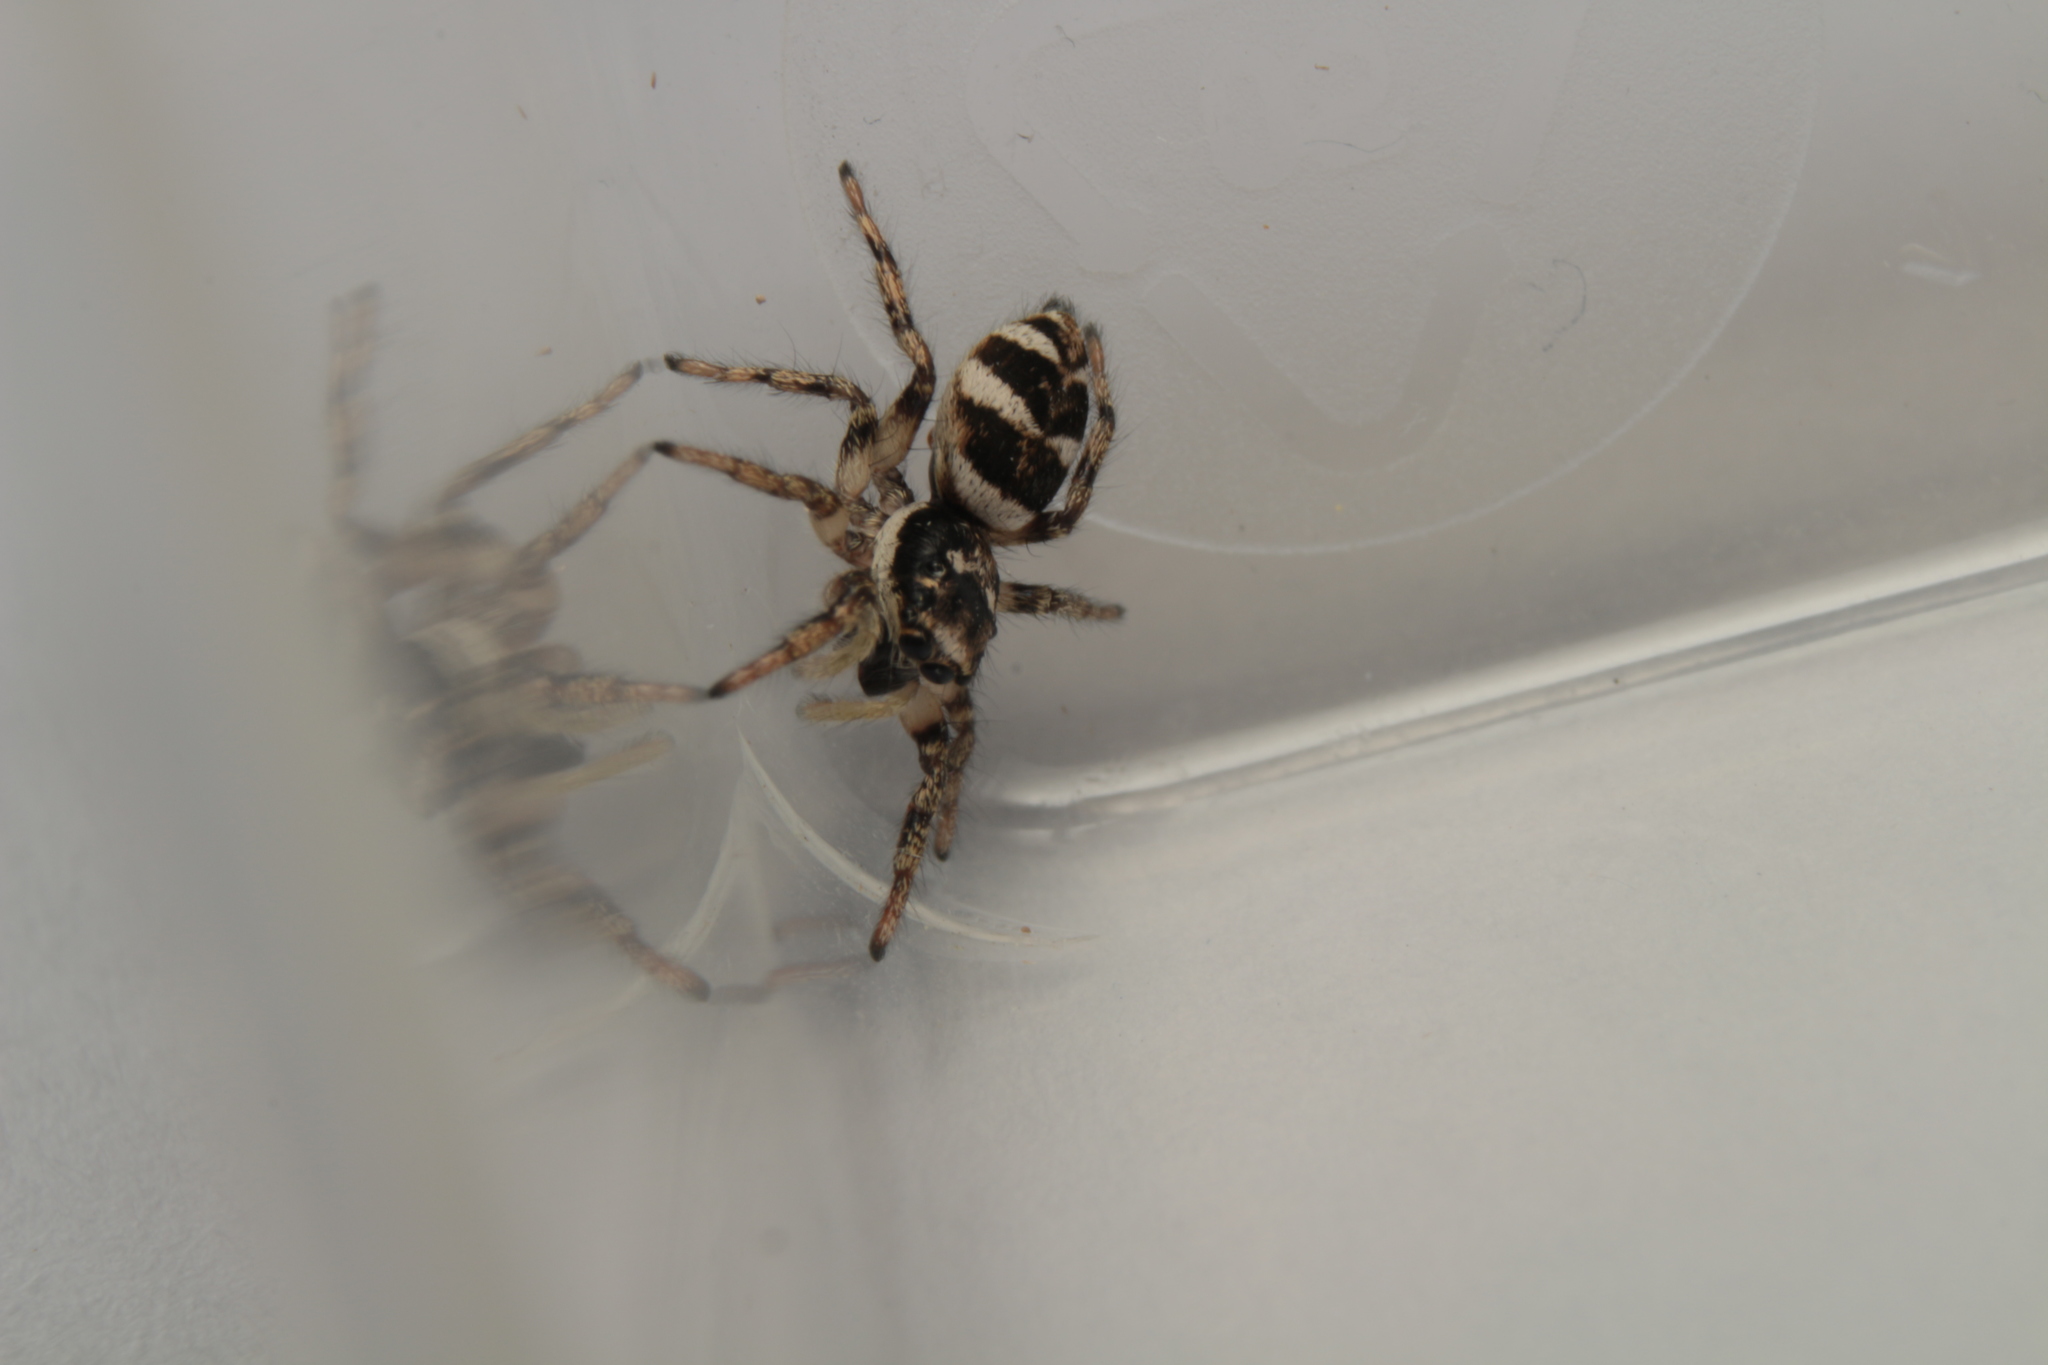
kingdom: Animalia
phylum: Arthropoda
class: Arachnida
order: Araneae
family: Salticidae
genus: Salticus
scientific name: Salticus scenicus
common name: Zebra jumper
